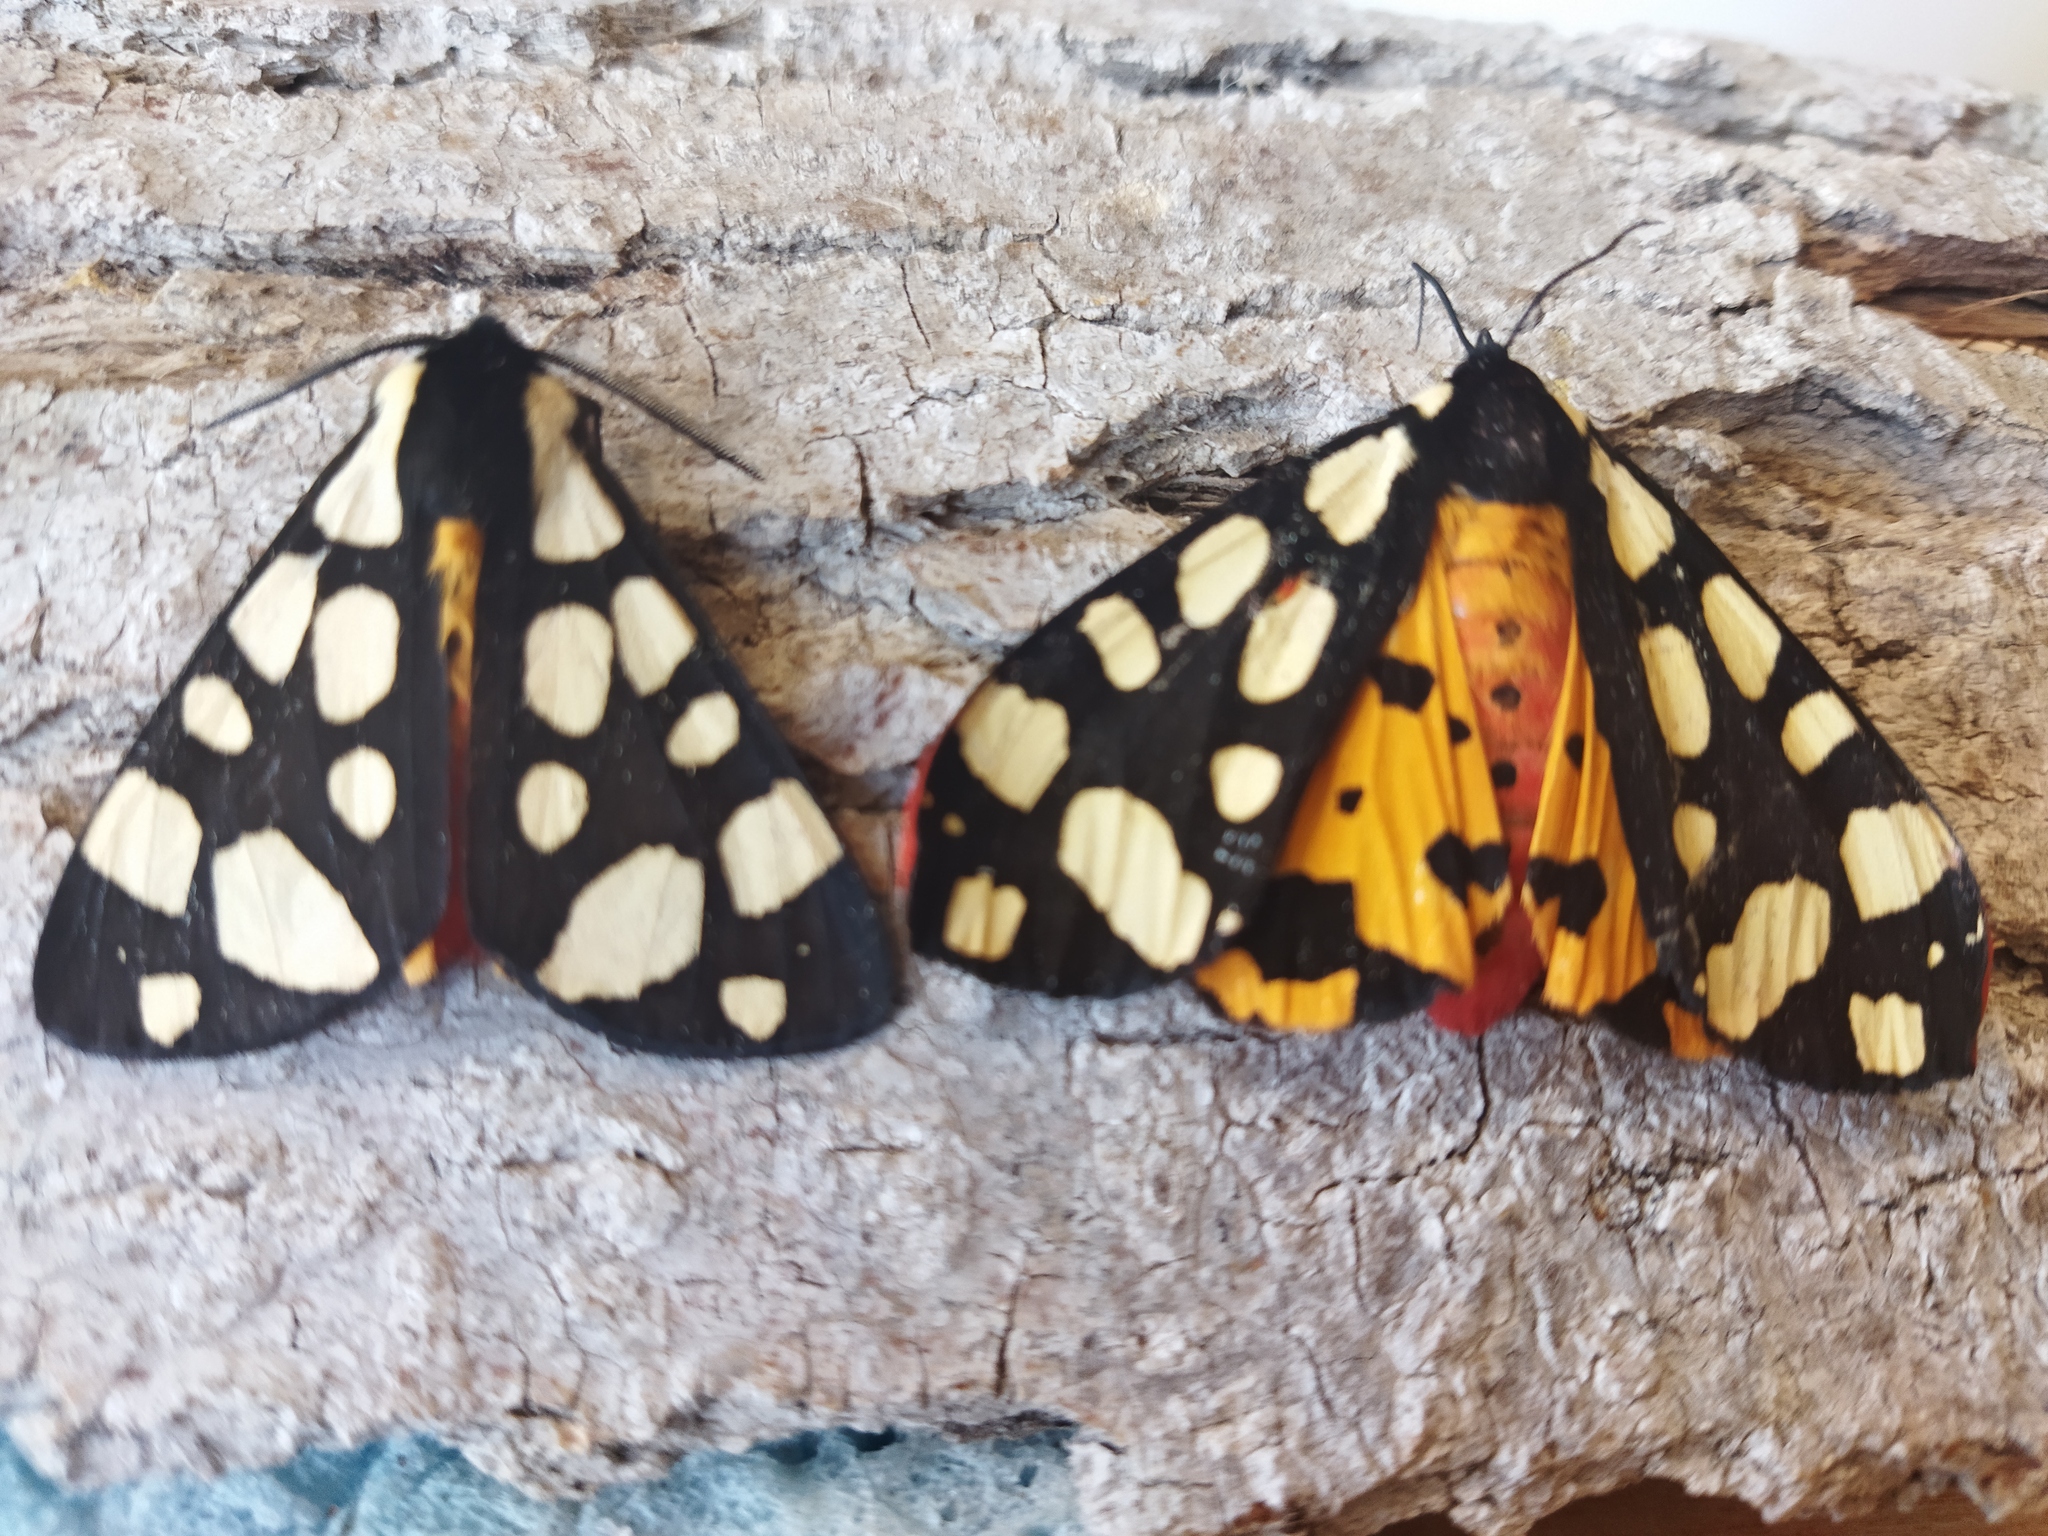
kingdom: Animalia
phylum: Arthropoda
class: Insecta
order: Lepidoptera
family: Erebidae
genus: Epicallia
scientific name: Epicallia villica
